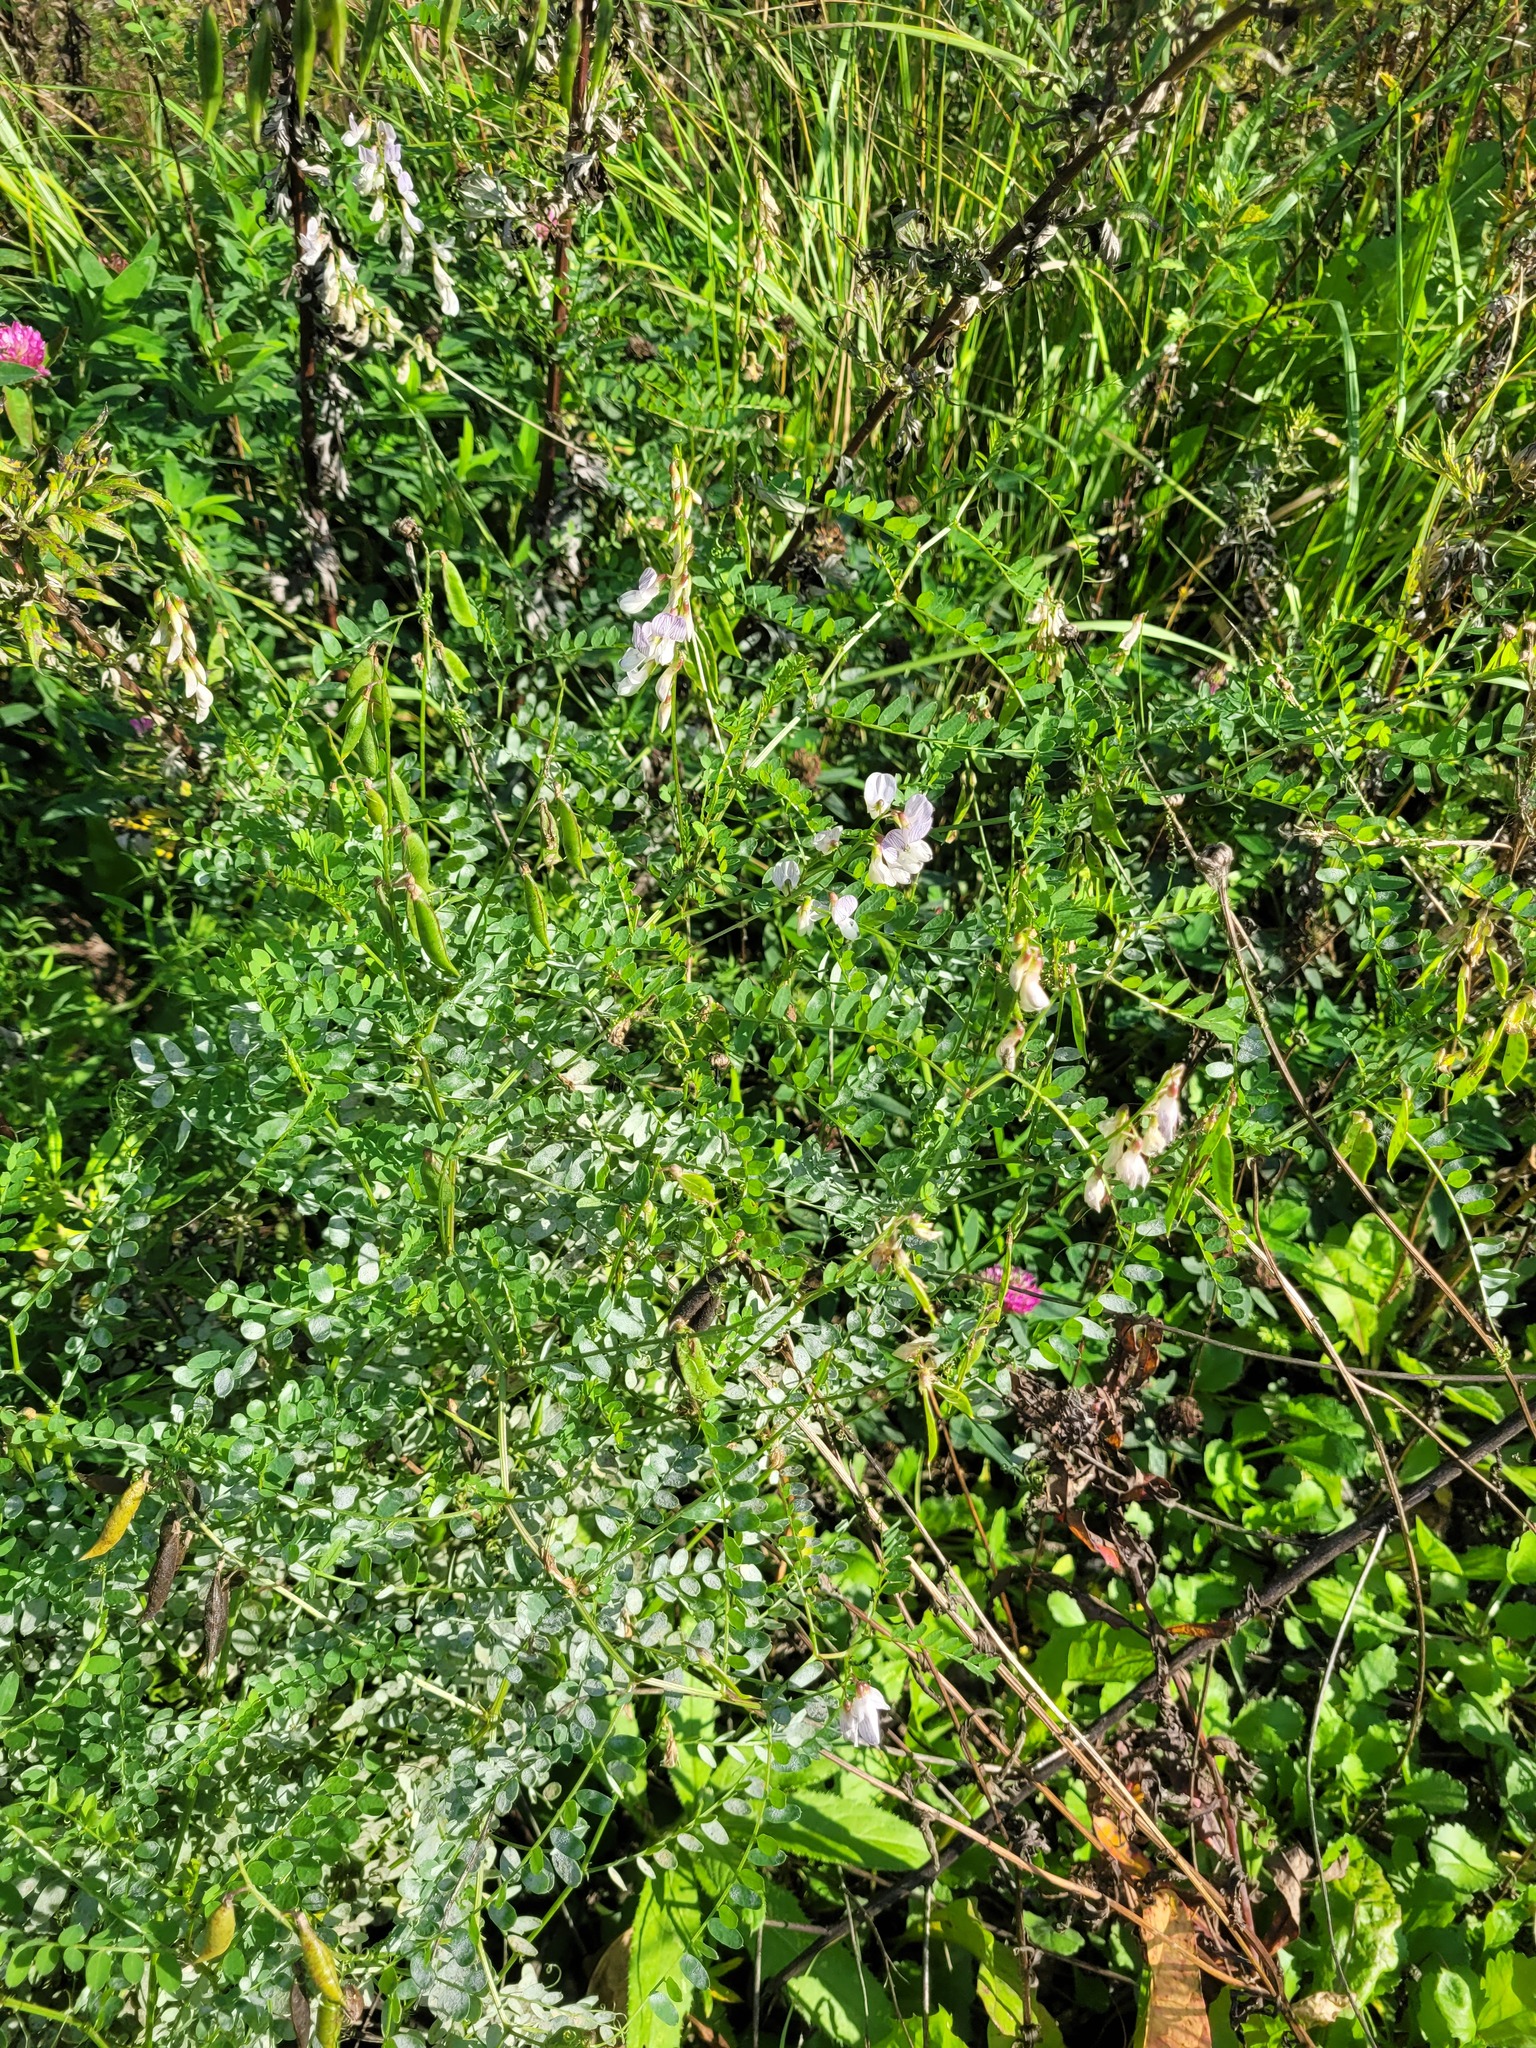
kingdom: Plantae
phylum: Tracheophyta
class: Magnoliopsida
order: Fabales
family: Fabaceae
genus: Vicia
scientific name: Vicia sylvatica
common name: Wood vetch
